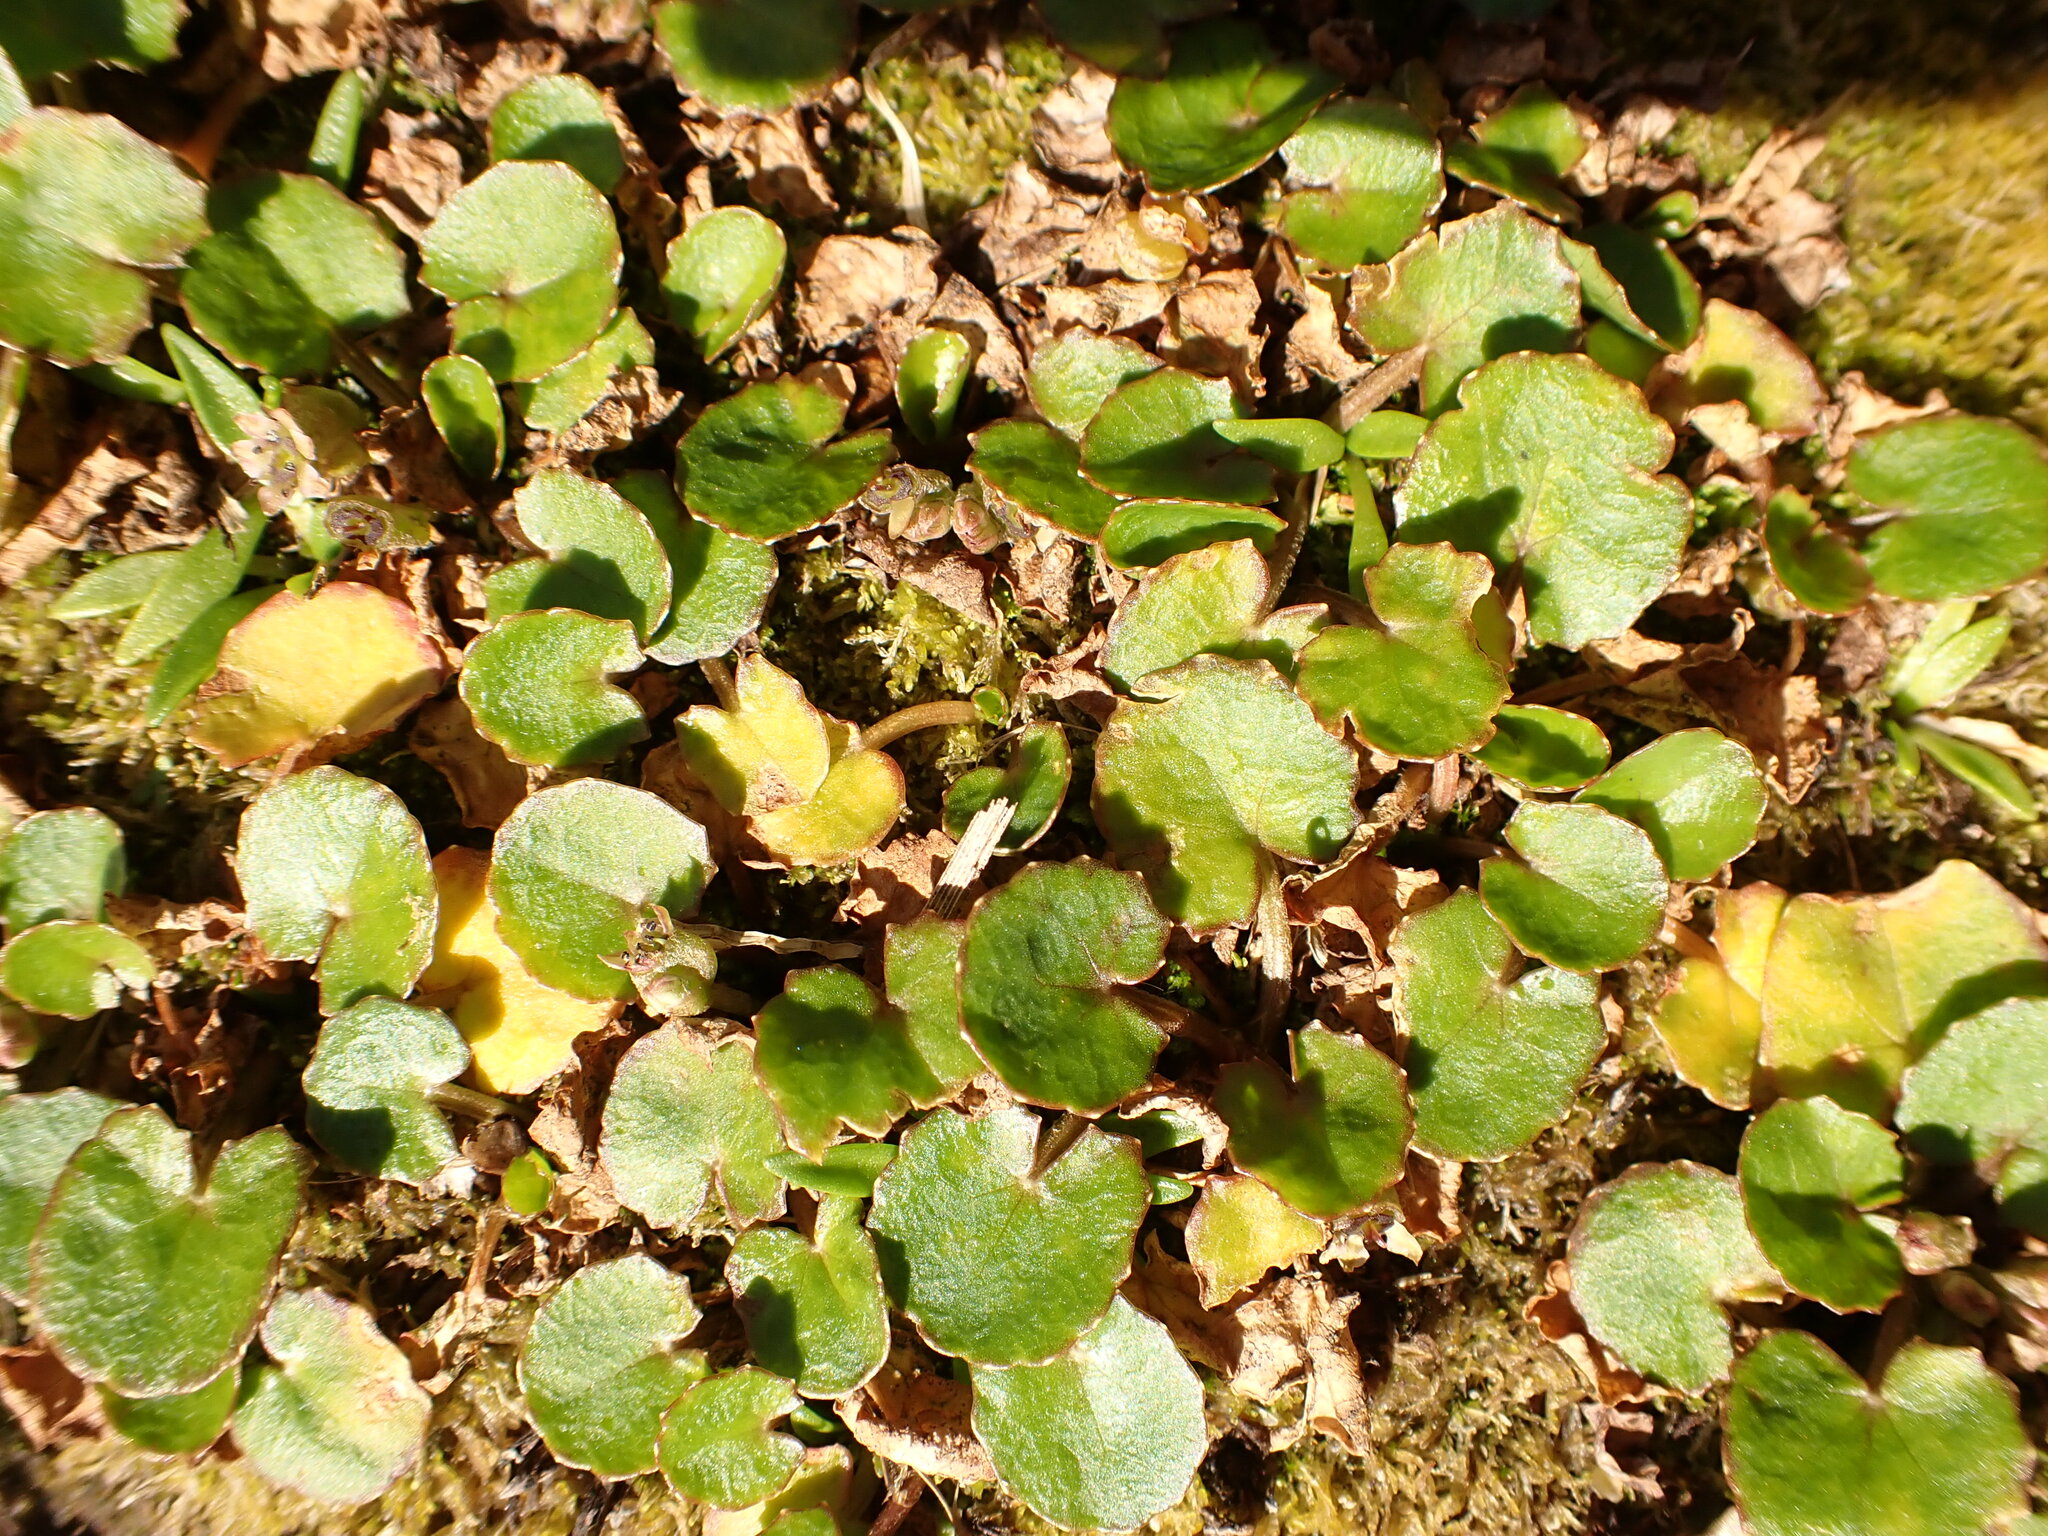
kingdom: Plantae
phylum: Tracheophyta
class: Magnoliopsida
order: Apiales
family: Apiaceae
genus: Centella
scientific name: Centella uniflora
